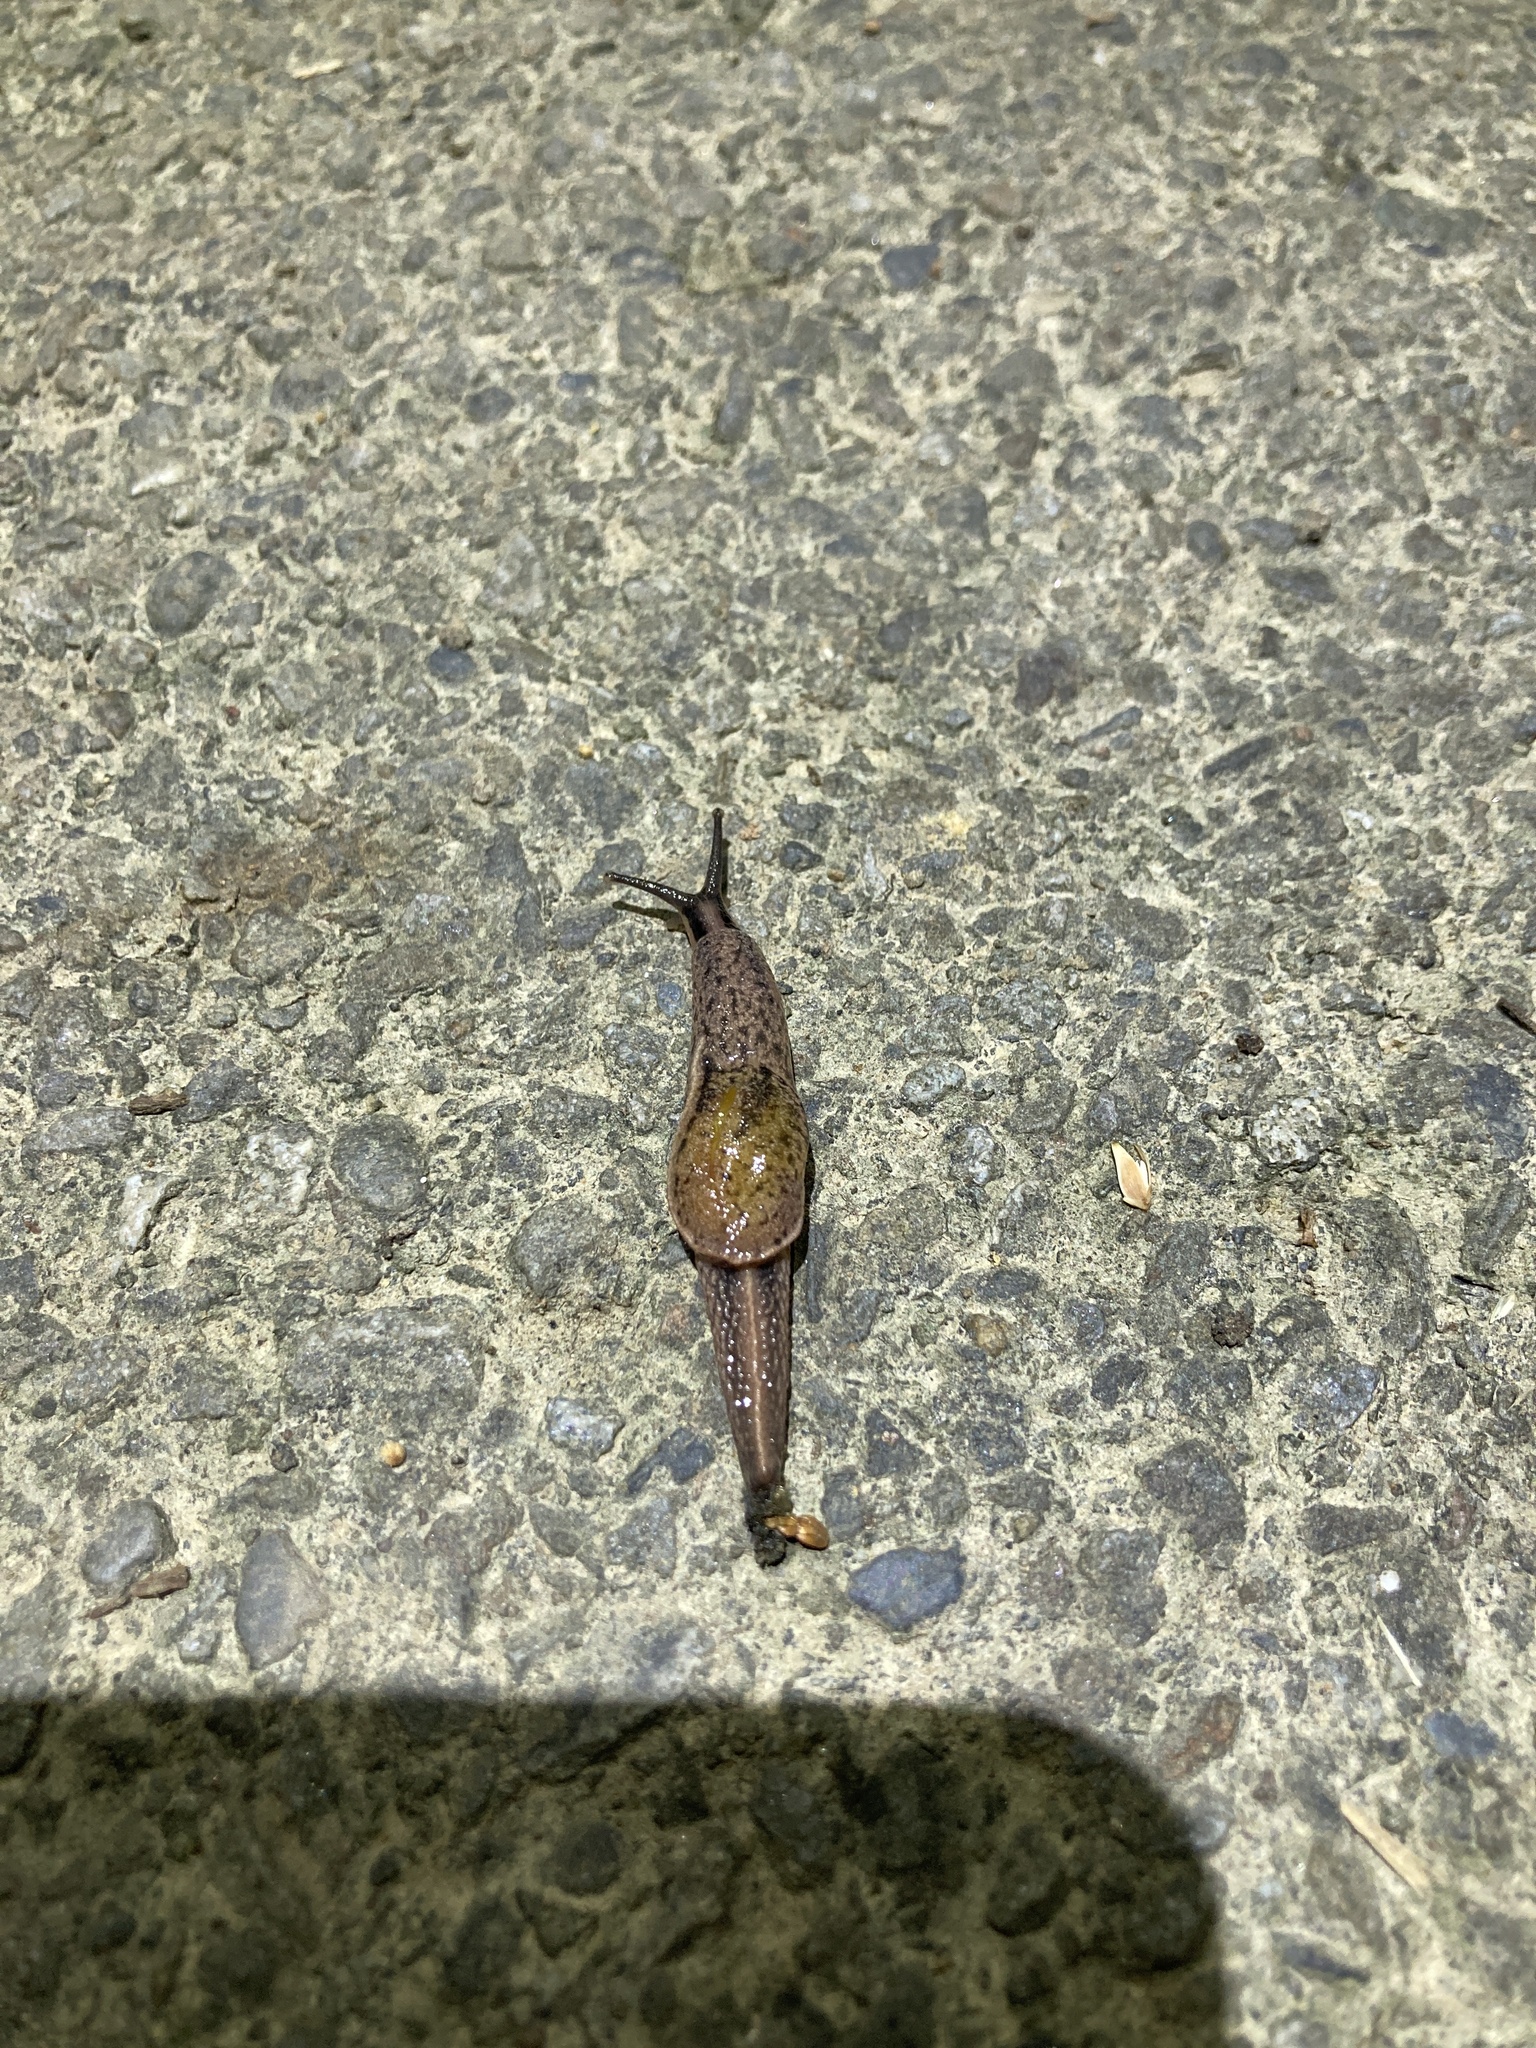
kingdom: Animalia
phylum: Mollusca
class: Gastropoda
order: Stylommatophora
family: Ariophantidae
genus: Parmarion
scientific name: Parmarion martensi
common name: Semi-slug
